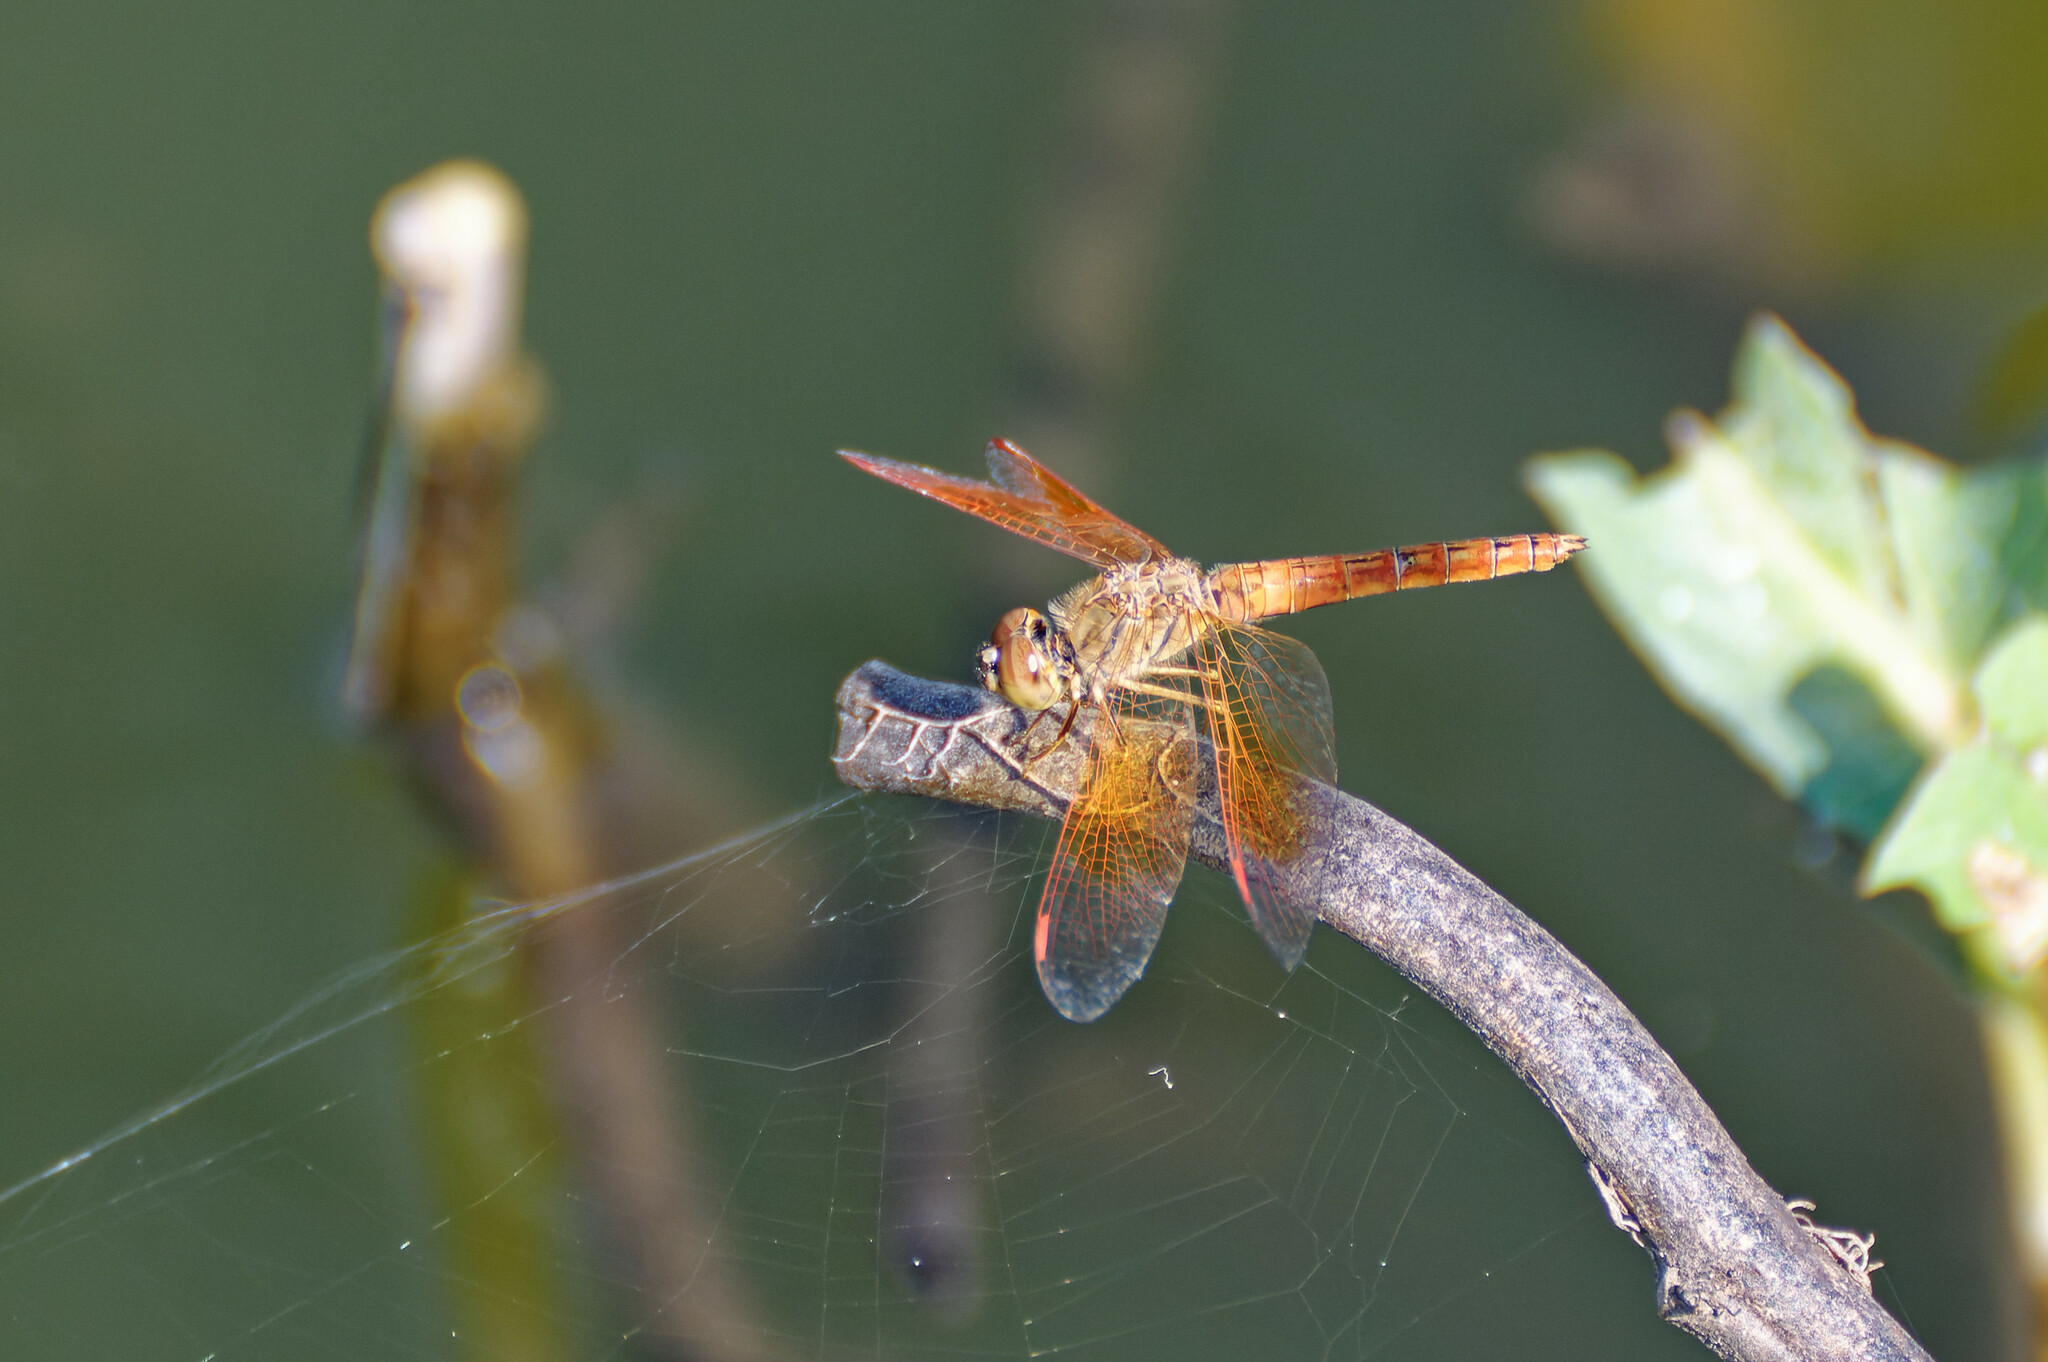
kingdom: Animalia
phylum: Arthropoda
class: Insecta
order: Odonata
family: Libellulidae
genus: Brachythemis
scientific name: Brachythemis contaminata
